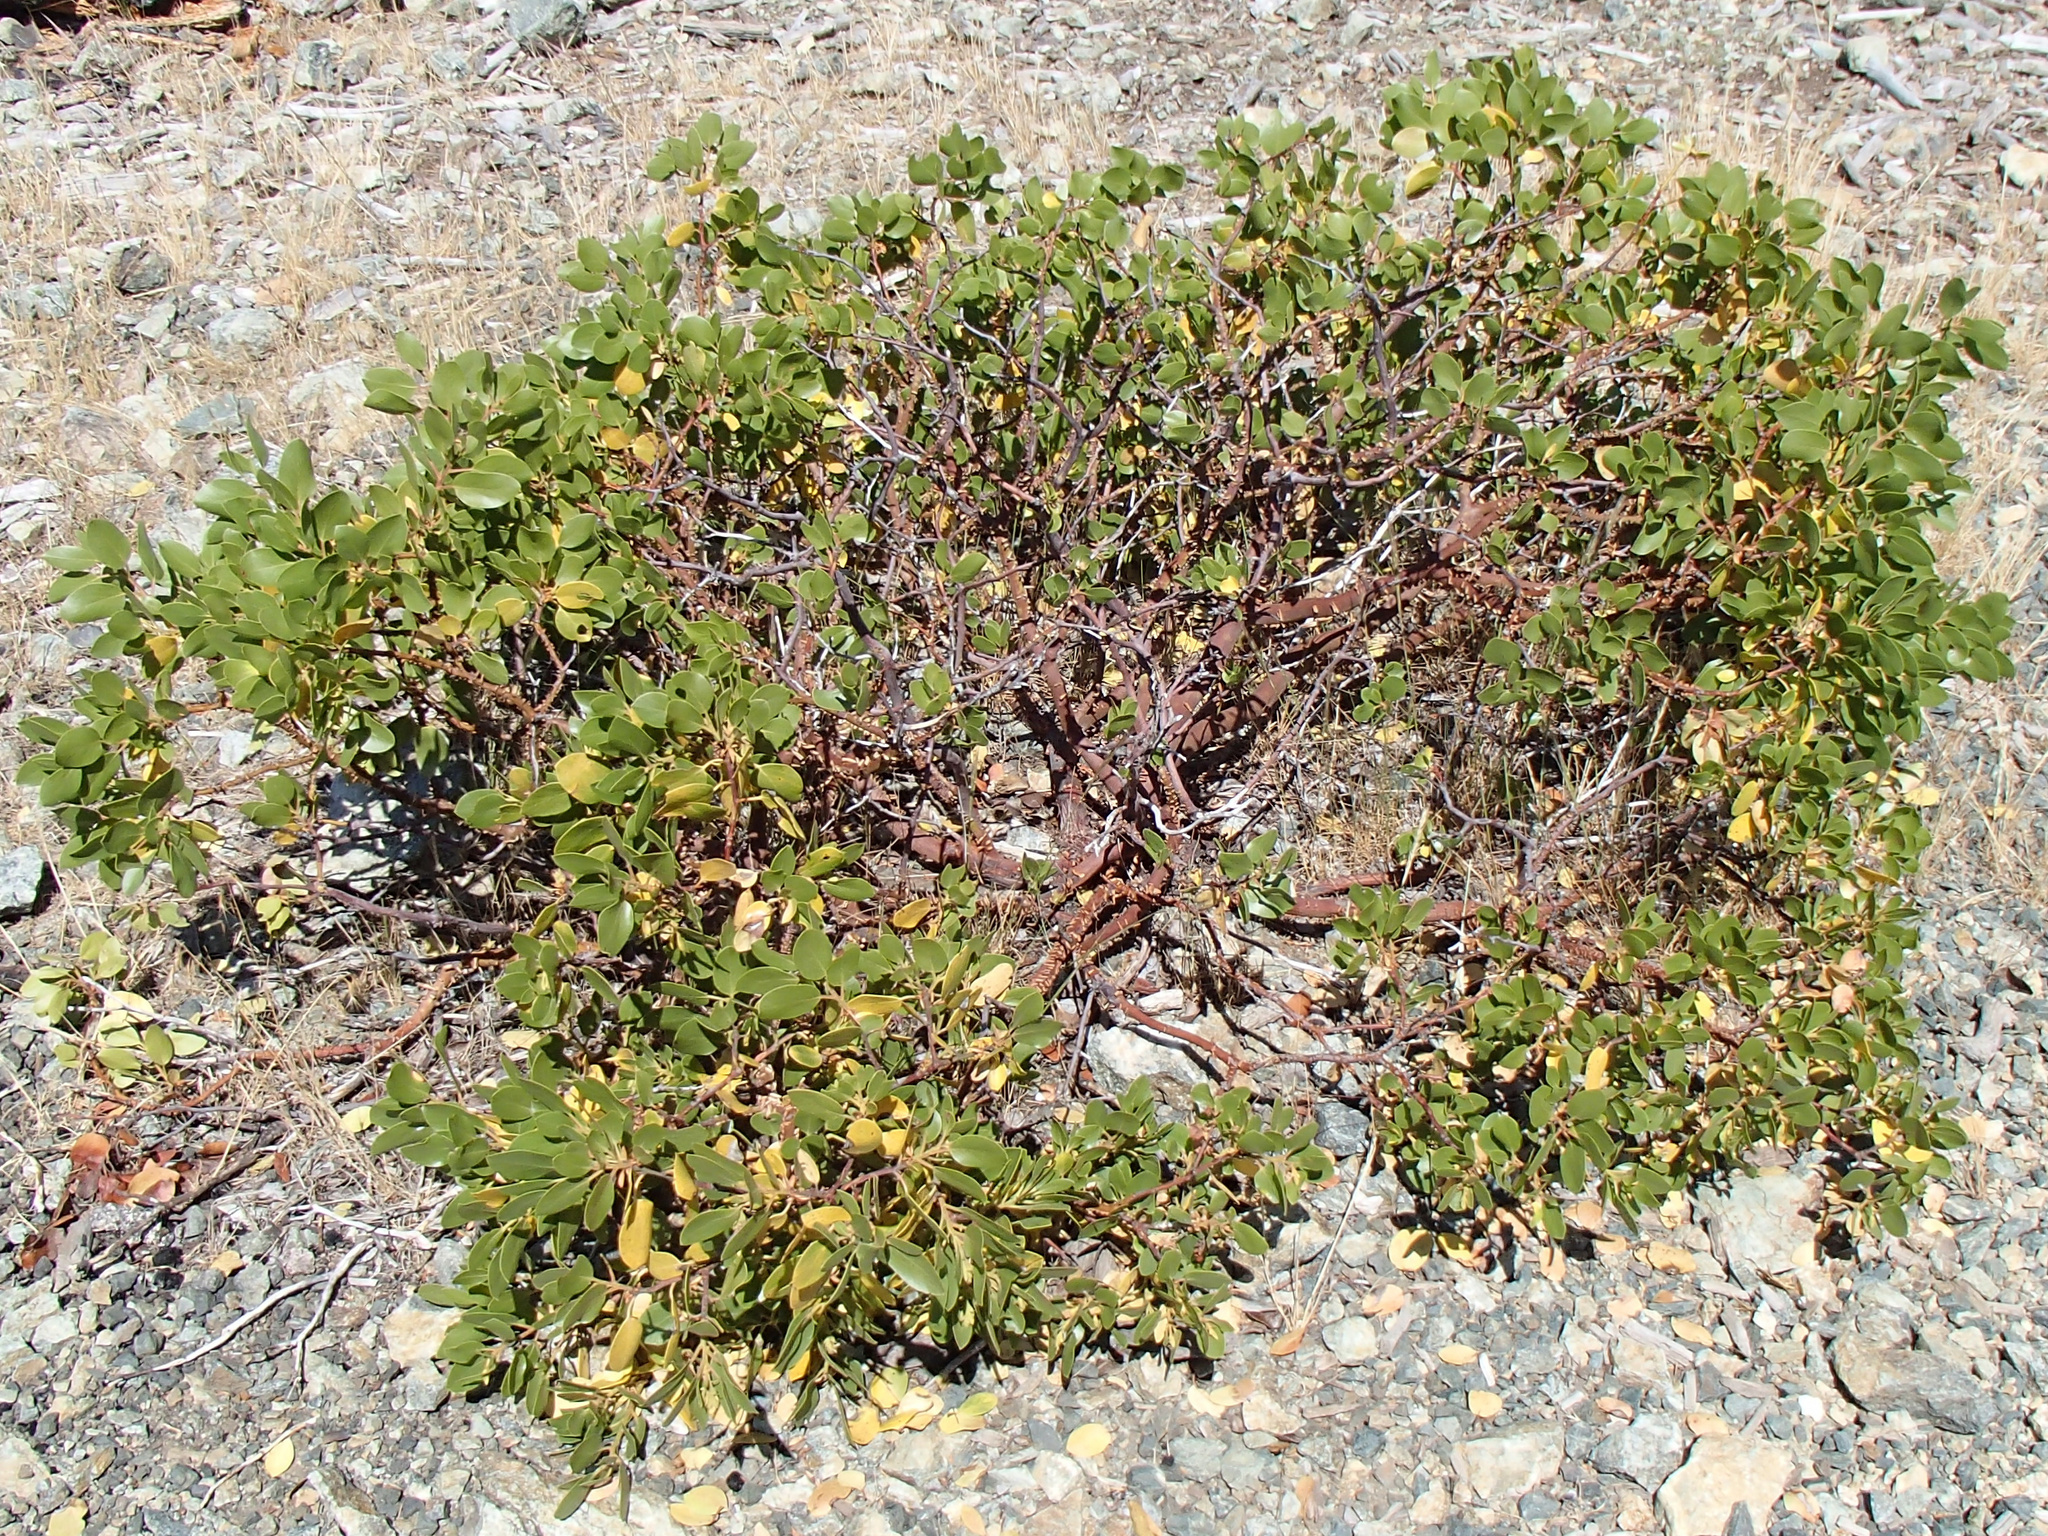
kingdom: Plantae
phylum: Tracheophyta
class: Magnoliopsida
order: Ericales
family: Ericaceae
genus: Arctostaphylos
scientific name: Arctostaphylos patula
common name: Green-leaf manzanita
